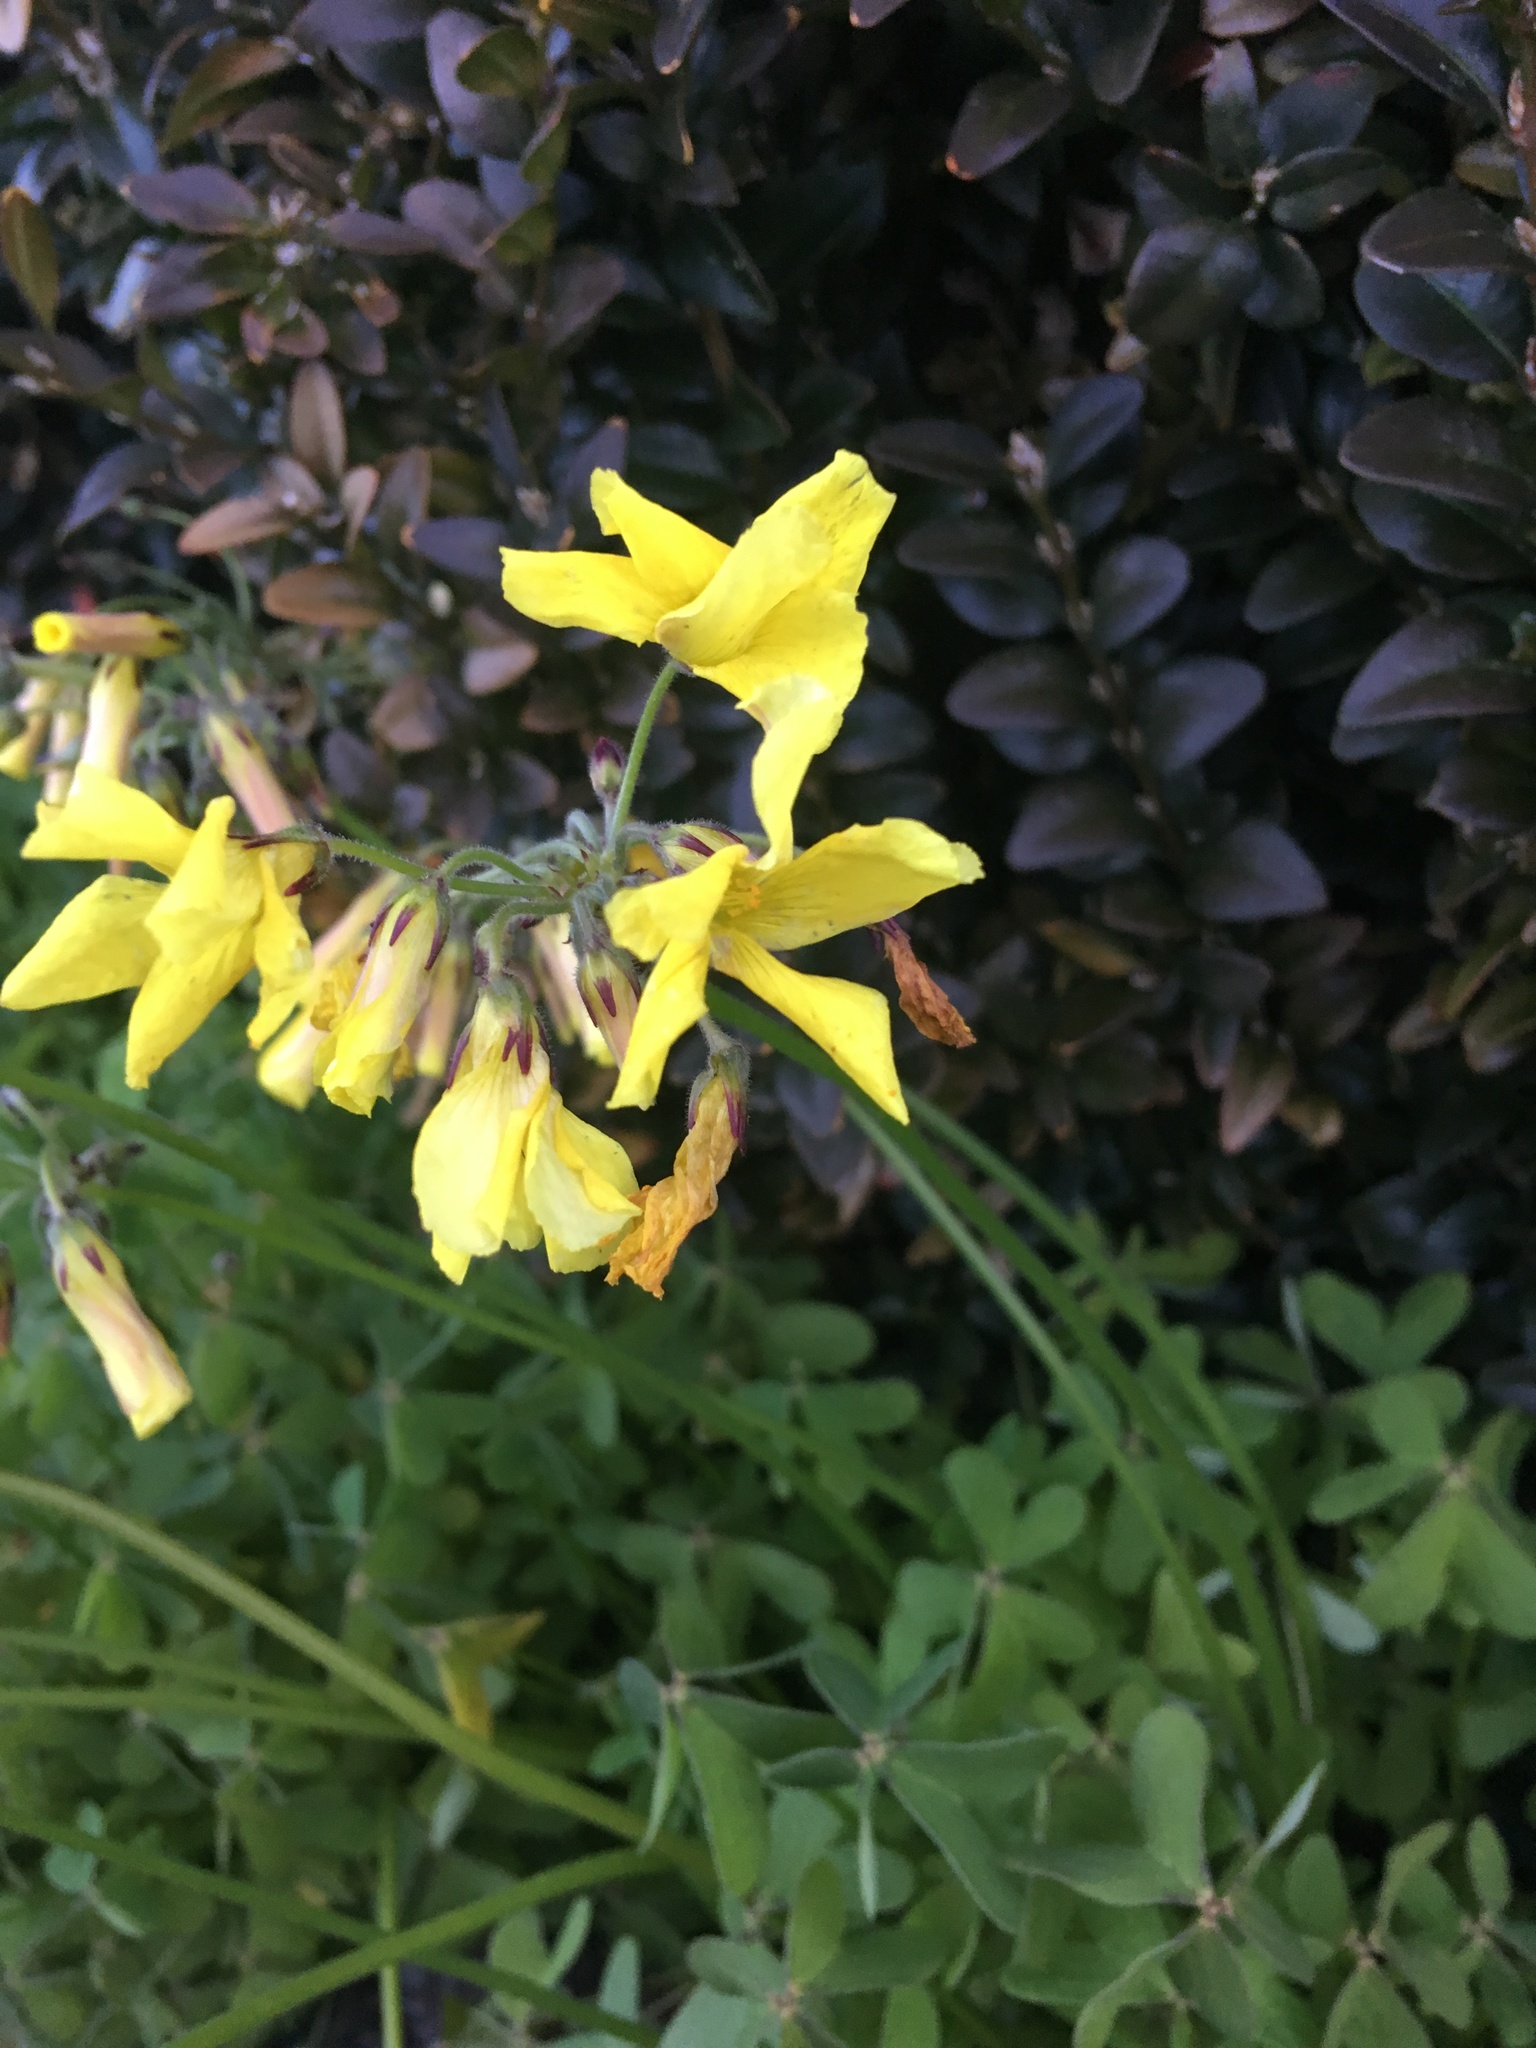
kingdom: Plantae
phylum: Tracheophyta
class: Magnoliopsida
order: Oxalidales
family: Oxalidaceae
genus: Oxalis
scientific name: Oxalis pes-caprae
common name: Bermuda-buttercup
